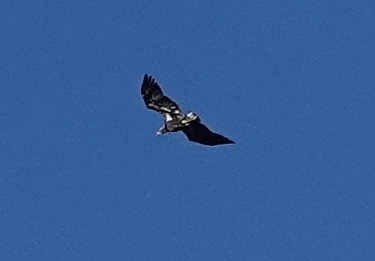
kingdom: Animalia
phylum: Chordata
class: Aves
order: Accipitriformes
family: Accipitridae
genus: Haliaeetus
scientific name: Haliaeetus leucocephalus
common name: Bald eagle
